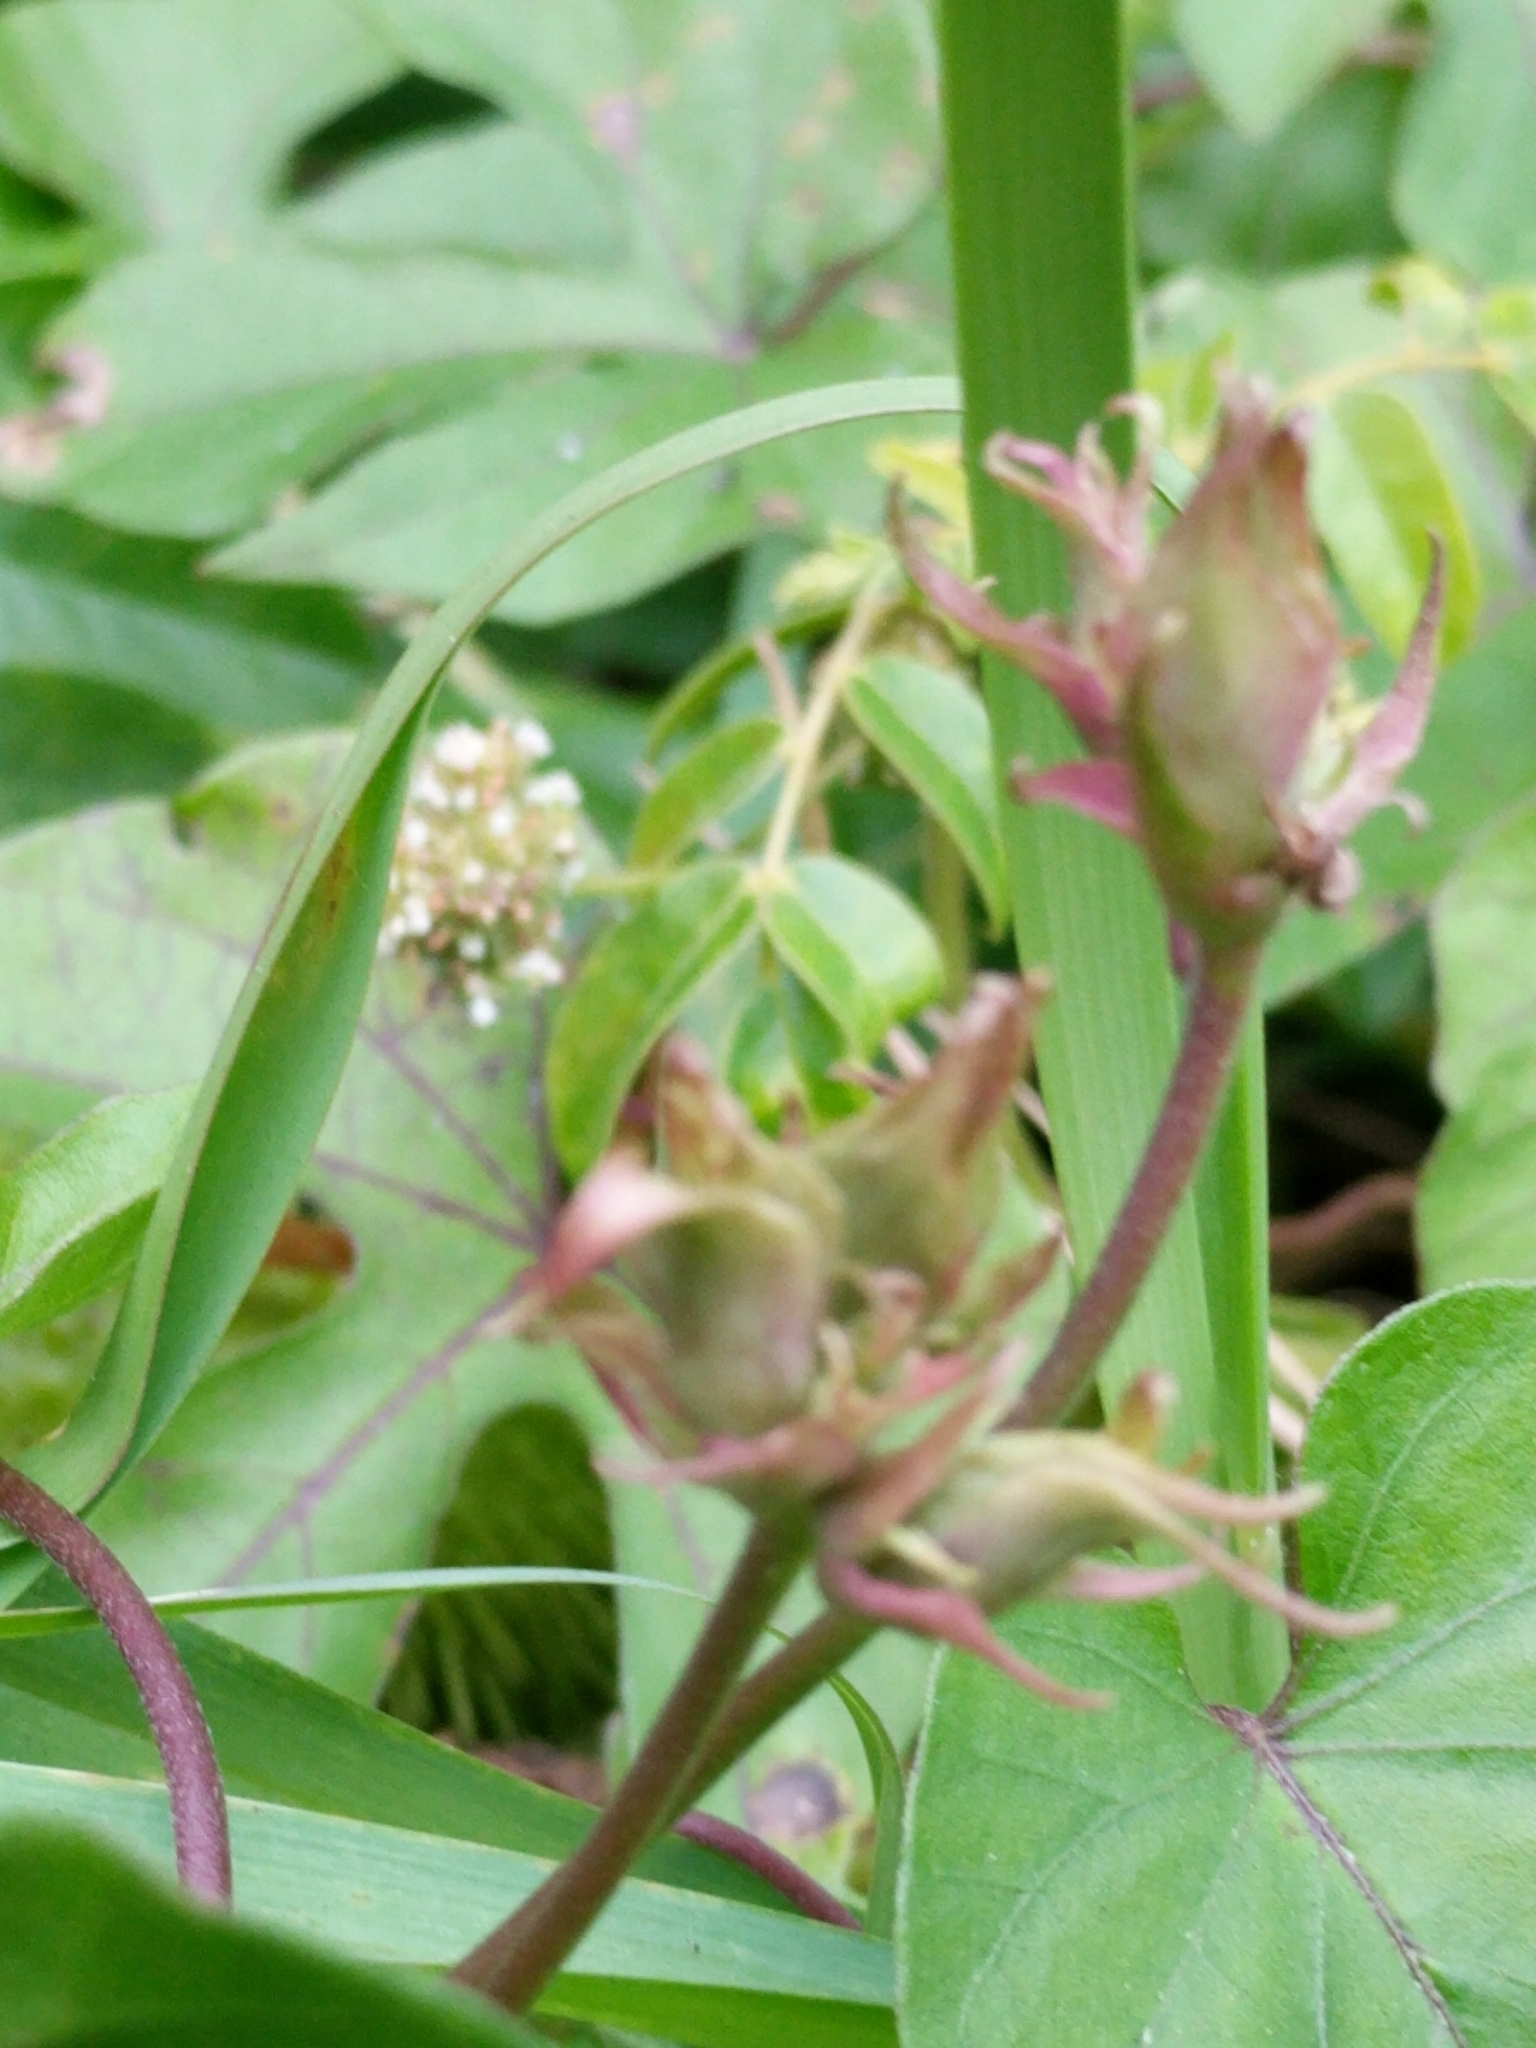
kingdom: Plantae
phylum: Tracheophyta
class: Magnoliopsida
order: Solanales
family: Convolvulaceae
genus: Ipomoea
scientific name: Ipomoea indica
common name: Blue dawnflower
